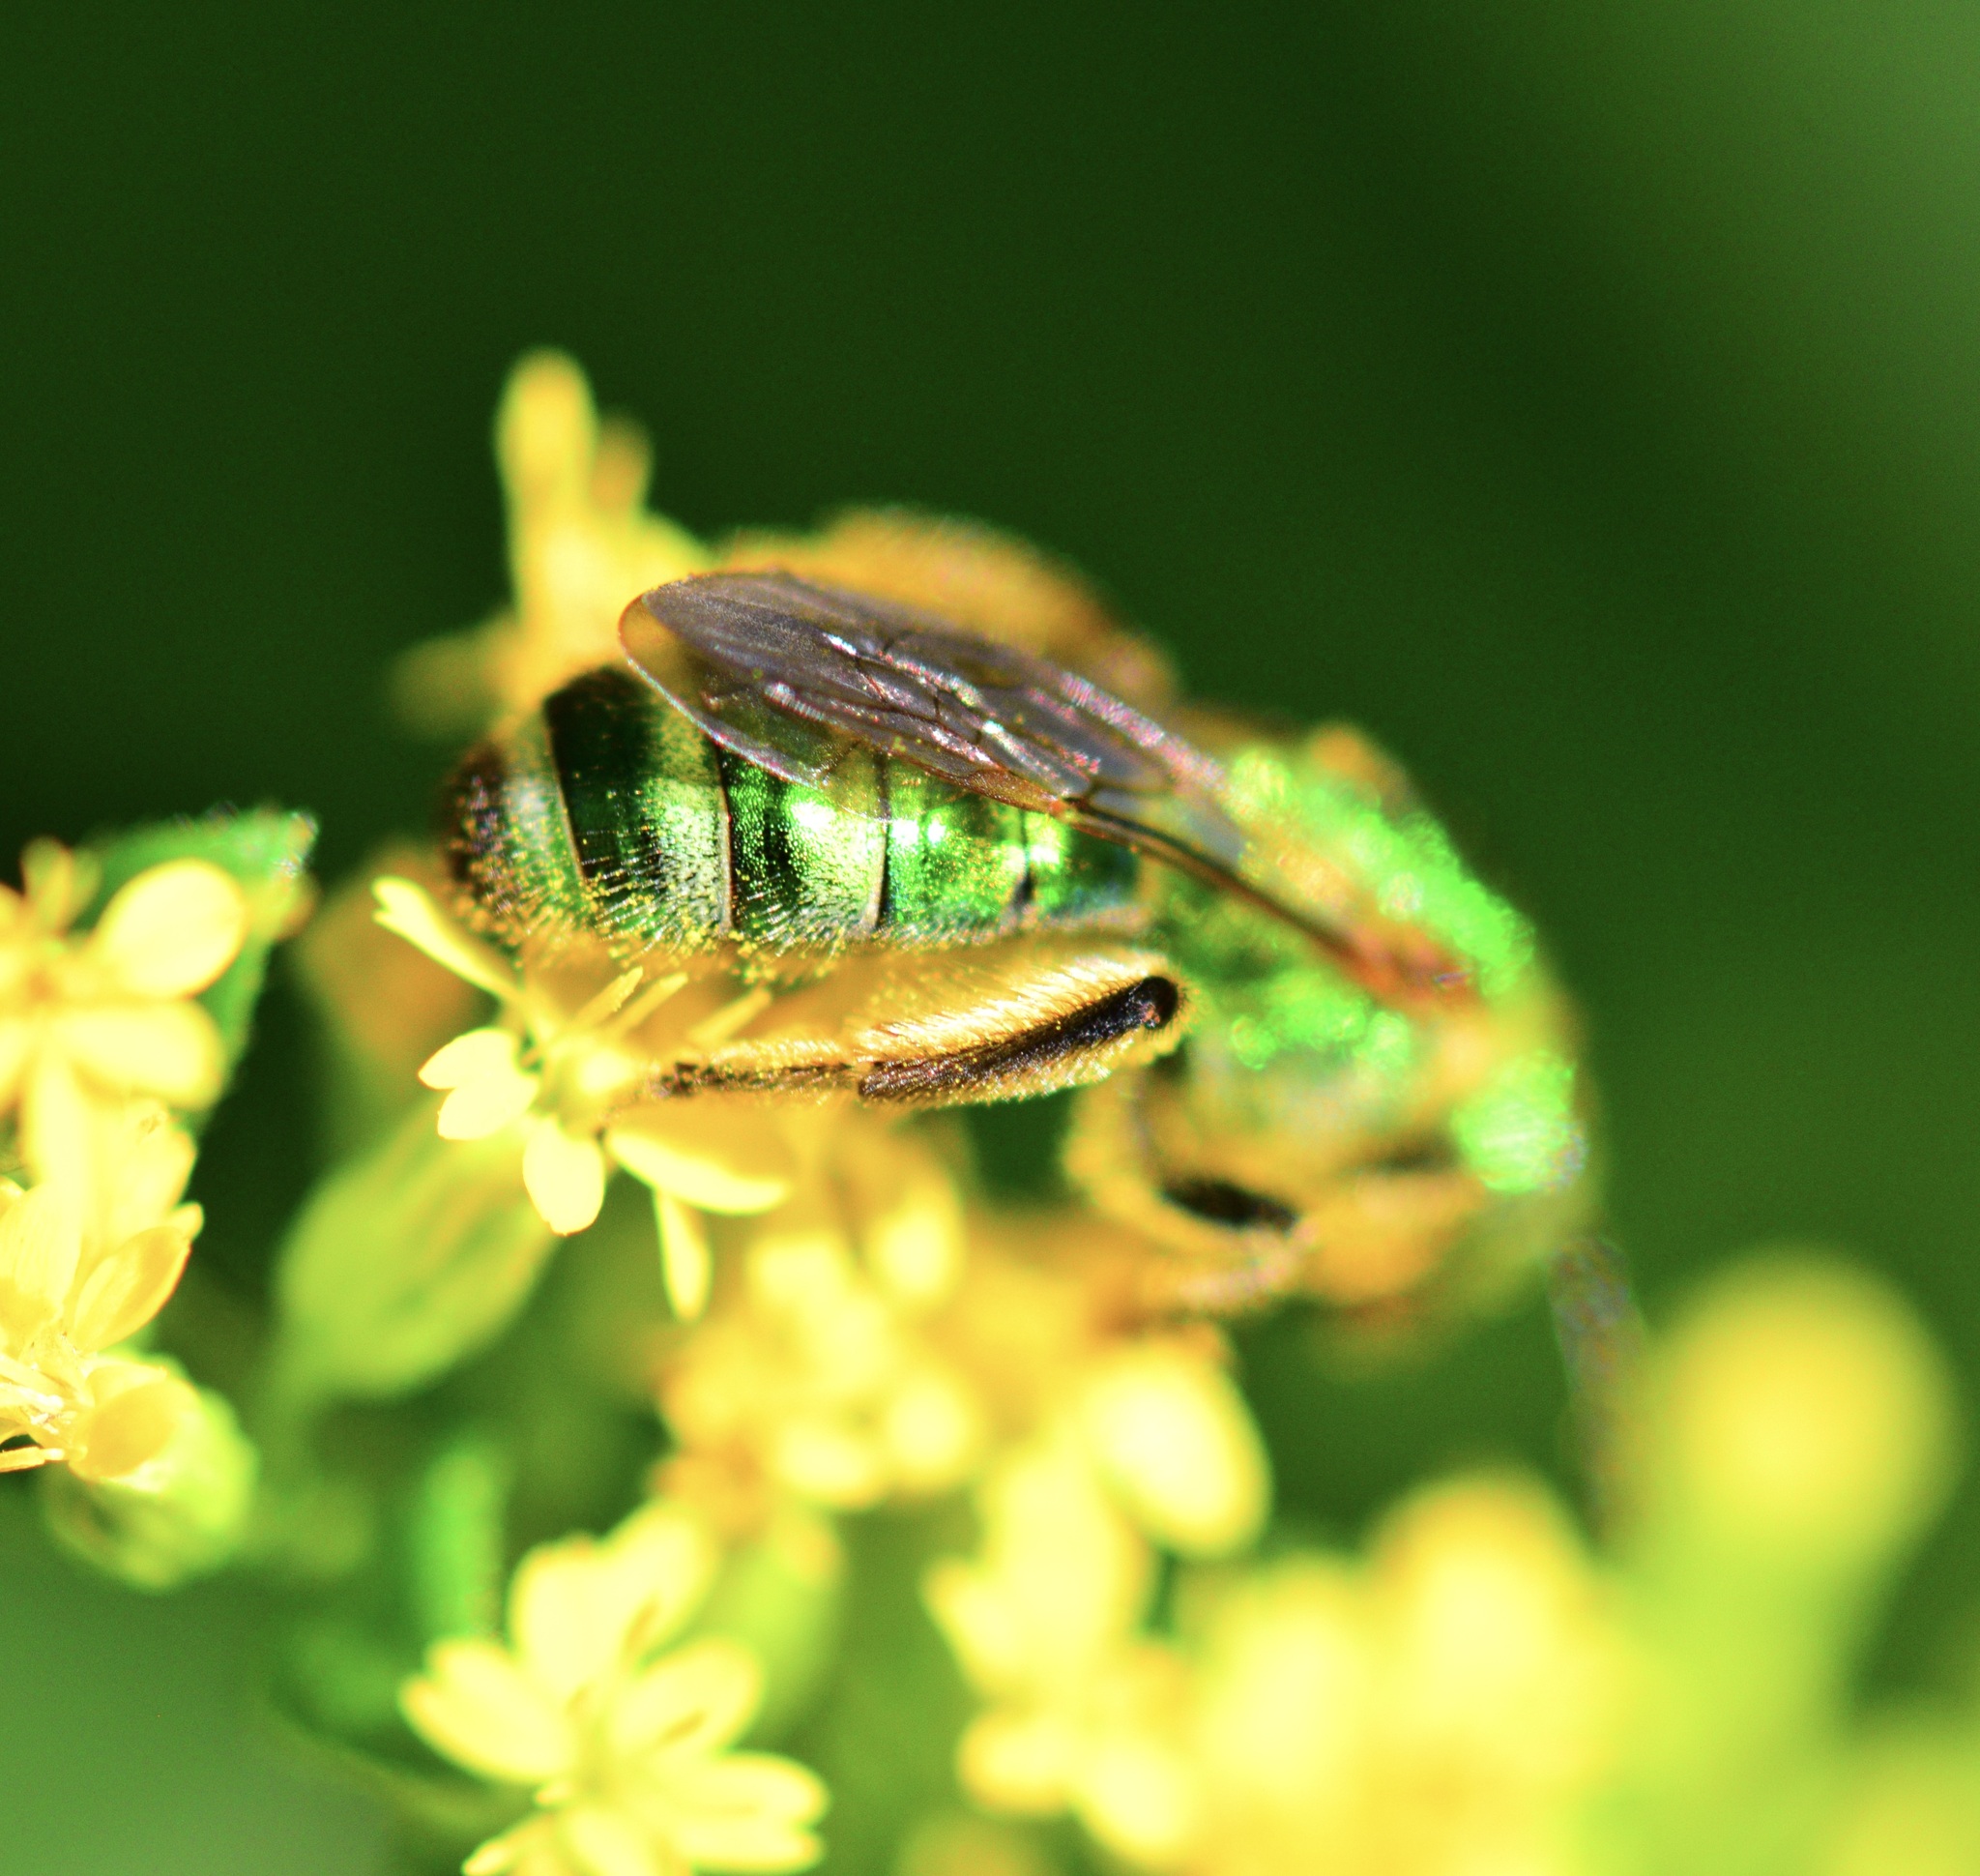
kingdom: Animalia
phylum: Arthropoda
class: Insecta
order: Hymenoptera
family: Halictidae
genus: Agapostemon
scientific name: Agapostemon sericeus
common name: Silky striped sweat bee
